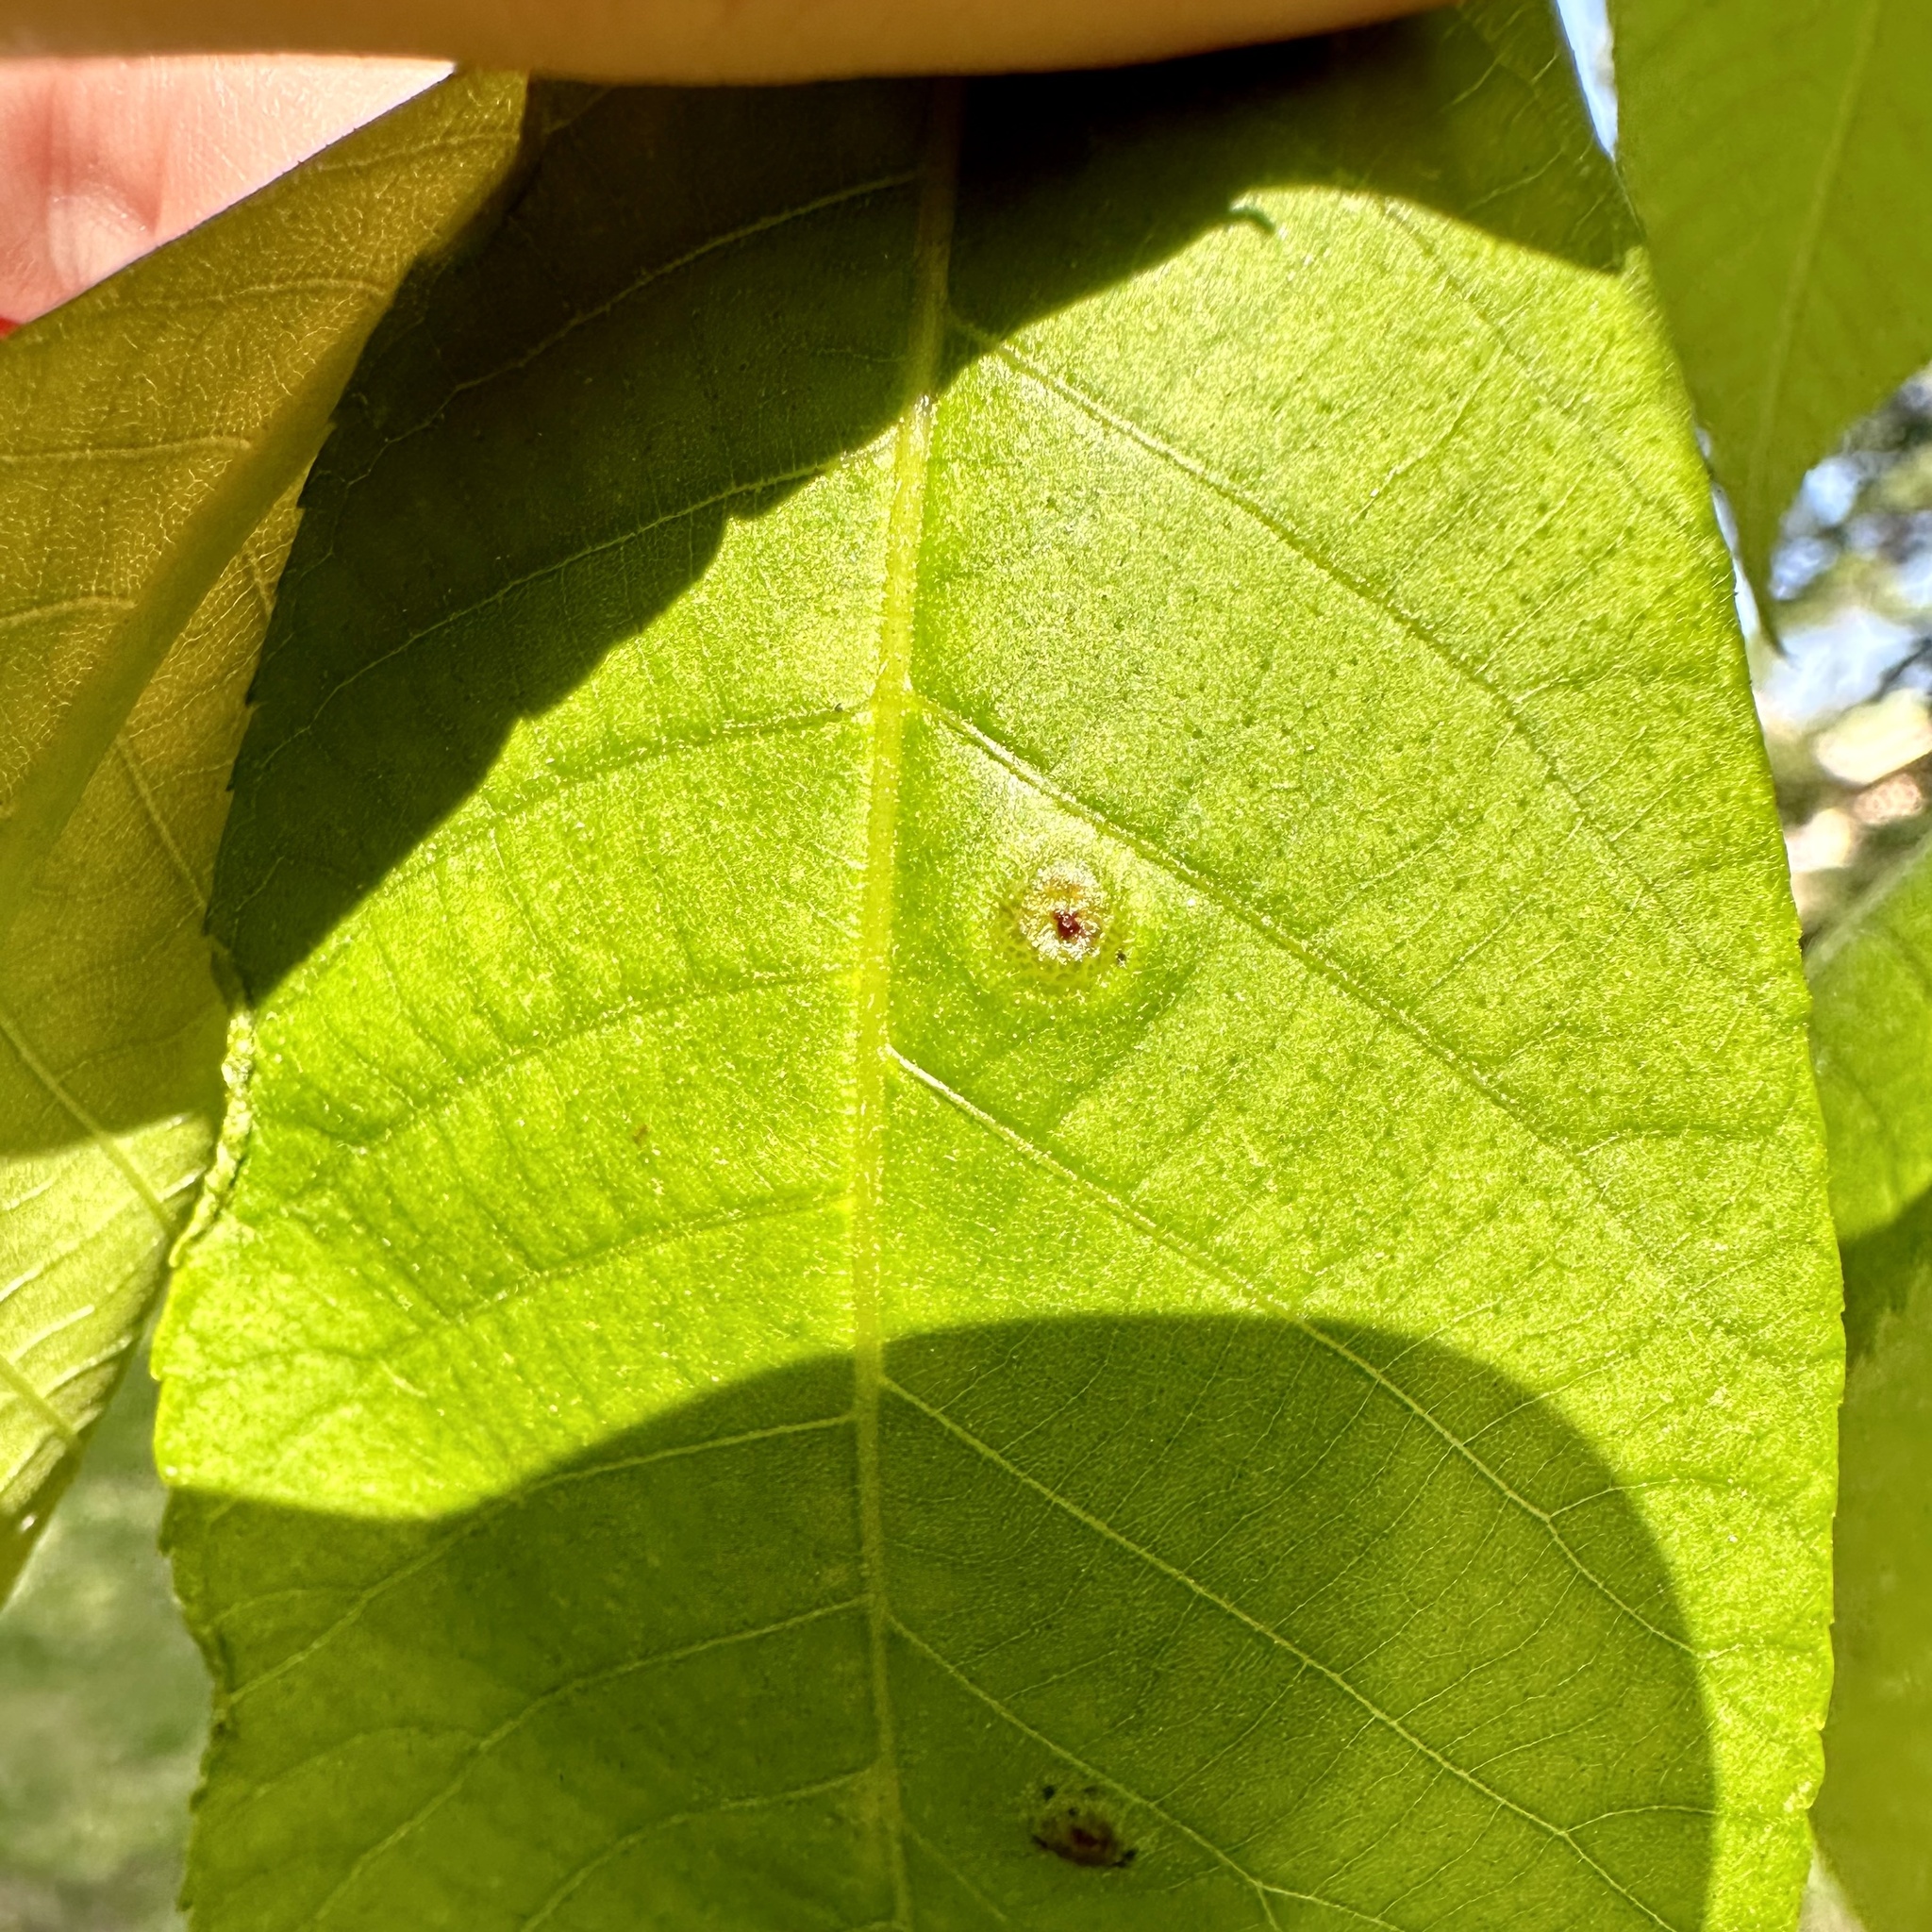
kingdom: Animalia
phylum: Arthropoda
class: Insecta
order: Hemiptera
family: Phylloxeridae
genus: Phylloxera
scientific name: Phylloxera foveola
